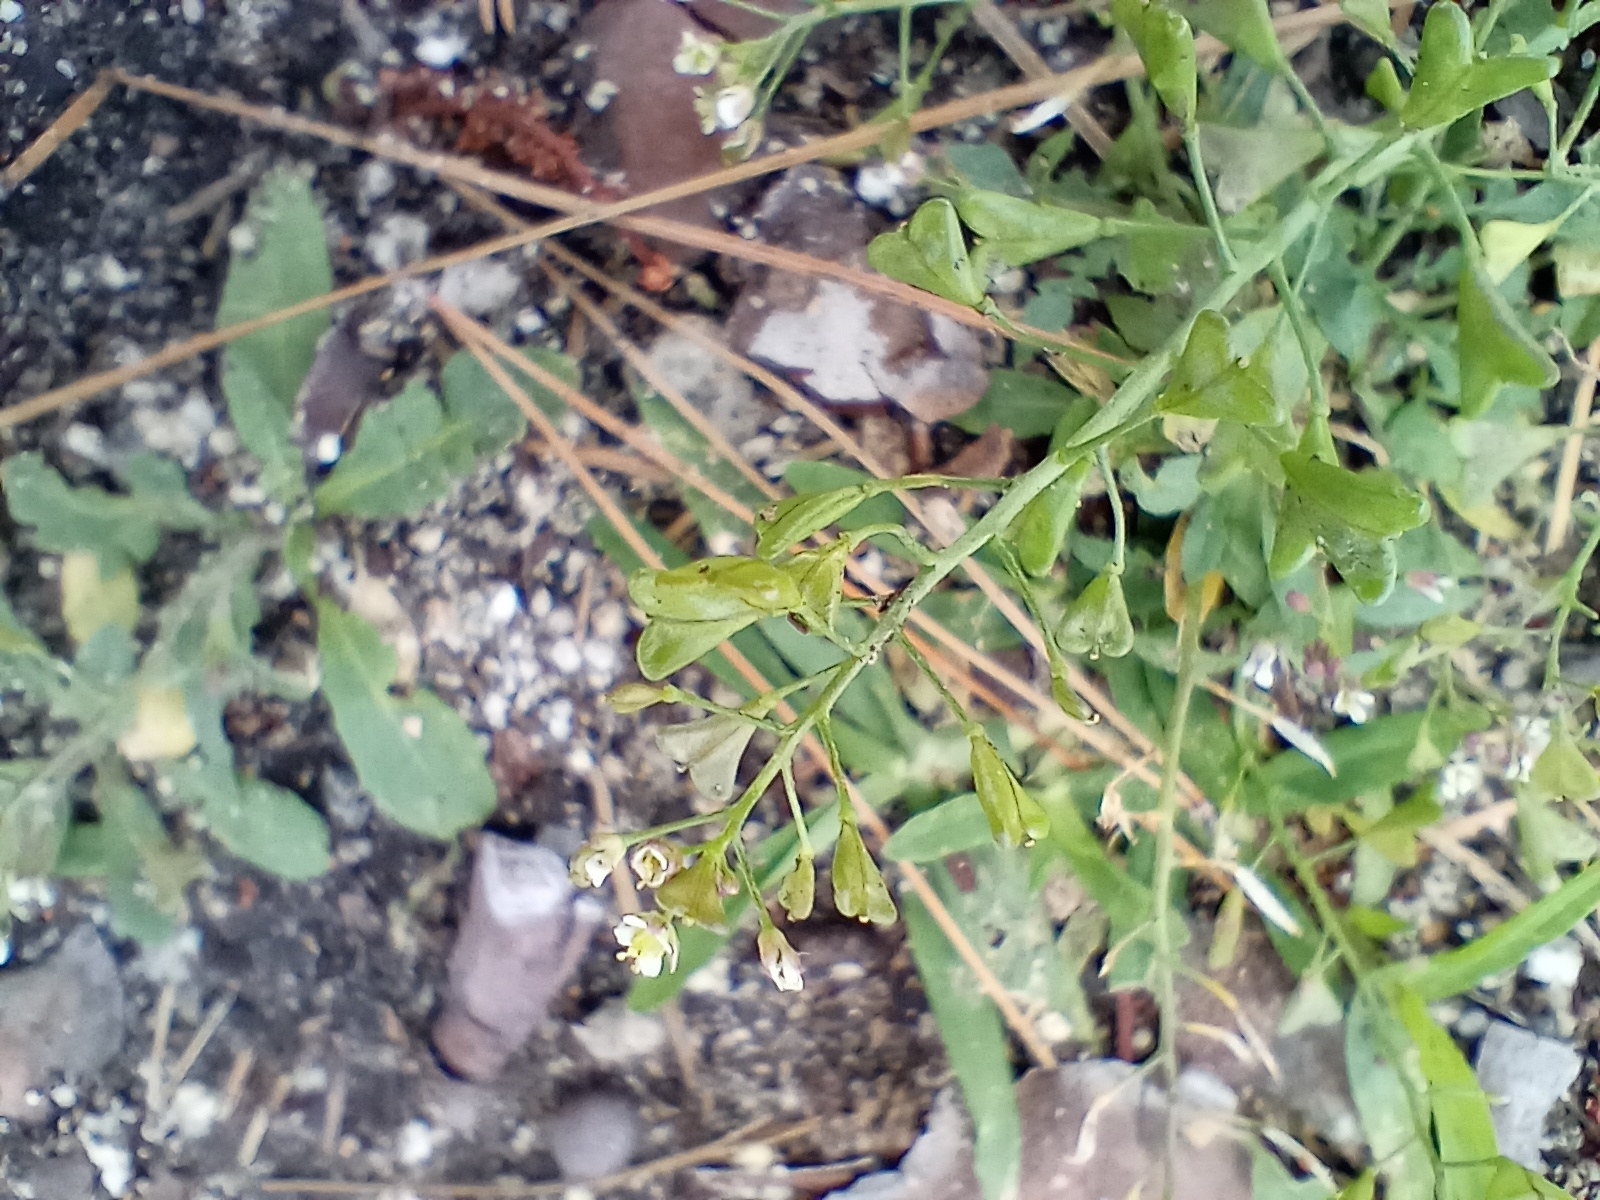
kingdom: Plantae
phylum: Tracheophyta
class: Magnoliopsida
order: Brassicales
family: Brassicaceae
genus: Capsella
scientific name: Capsella bursa-pastoris
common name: Shepherd's purse
